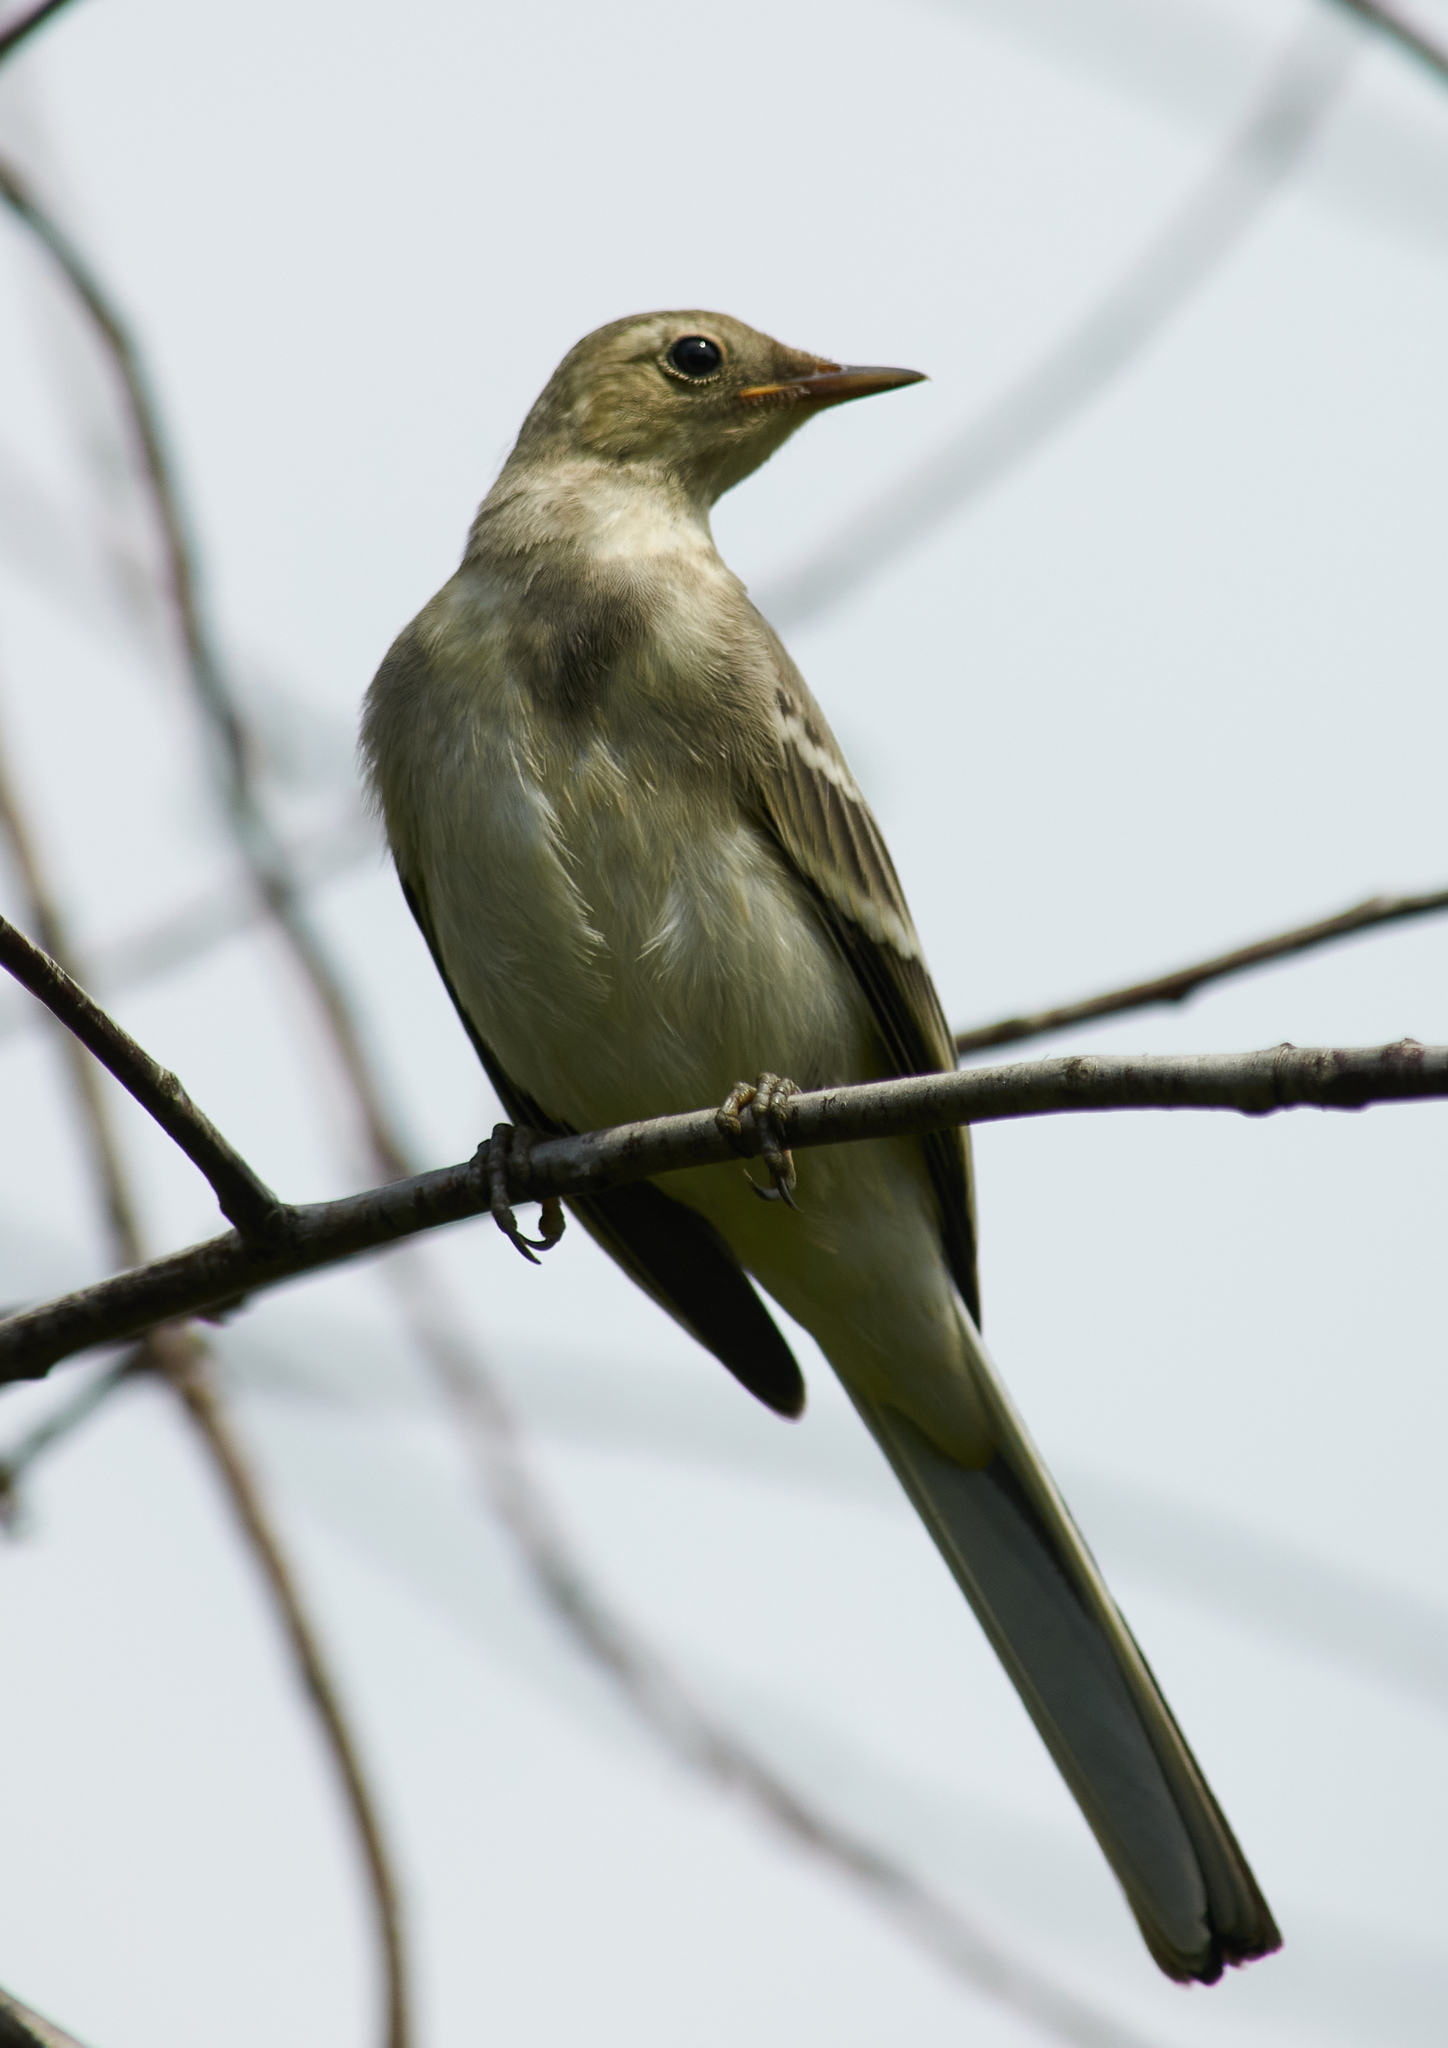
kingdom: Animalia
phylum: Chordata
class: Aves
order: Passeriformes
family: Motacillidae
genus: Motacilla
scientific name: Motacilla alba
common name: White wagtail
